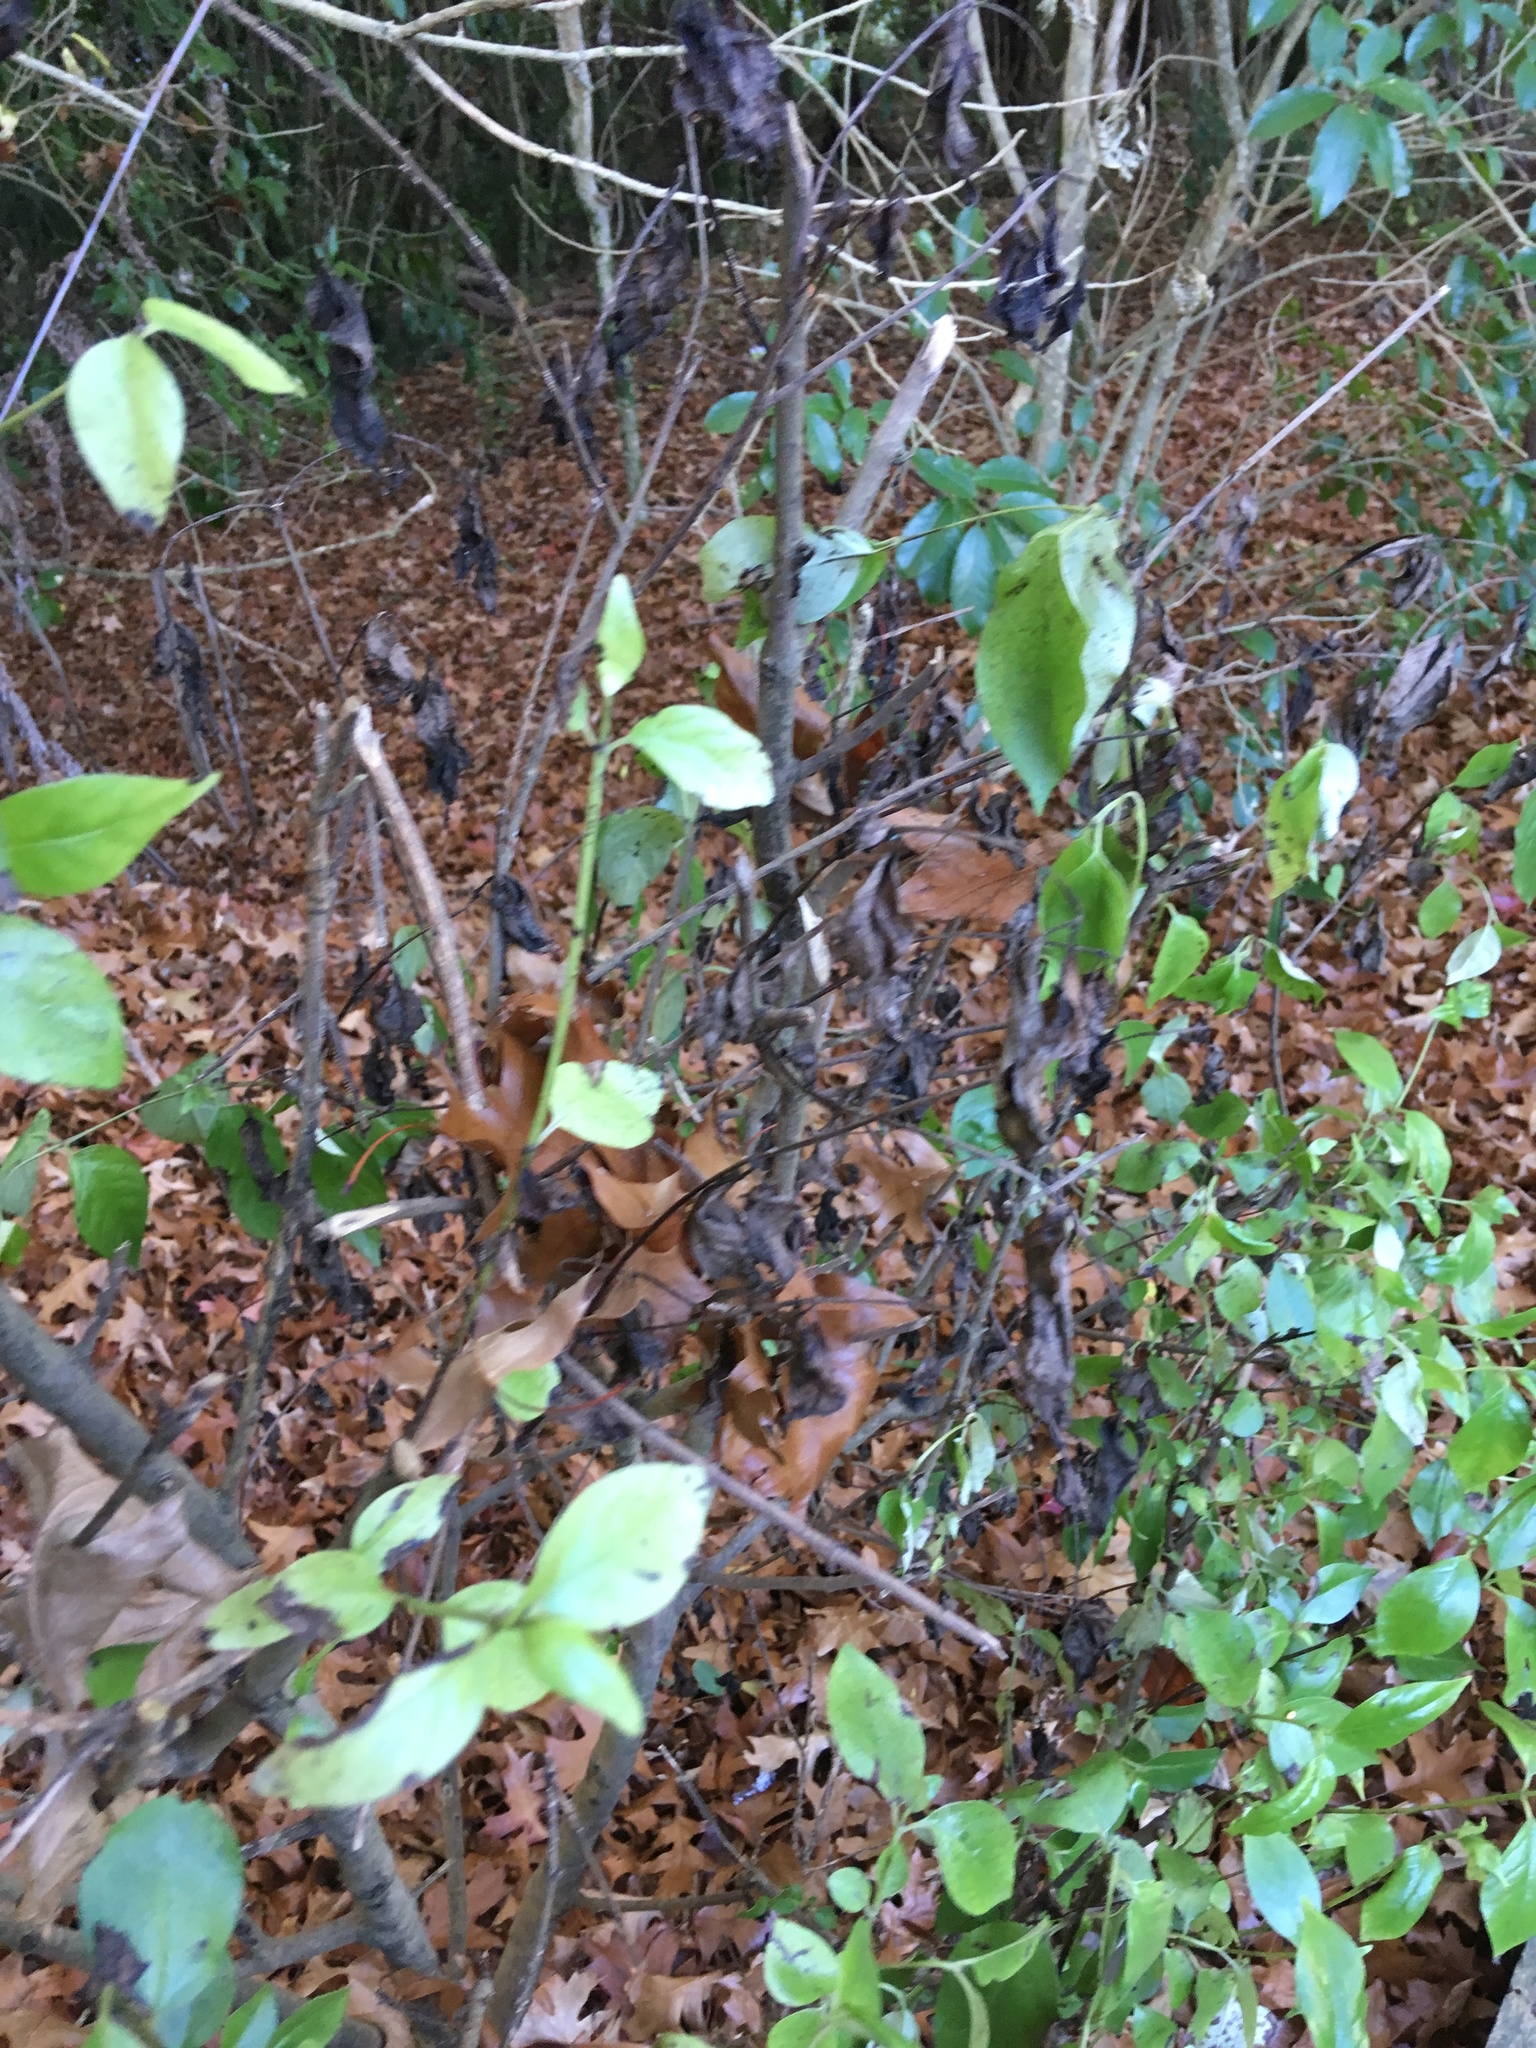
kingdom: Plantae
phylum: Tracheophyta
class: Magnoliopsida
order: Gentianales
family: Loganiaceae
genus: Geniostoma
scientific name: Geniostoma ligustrifolium
